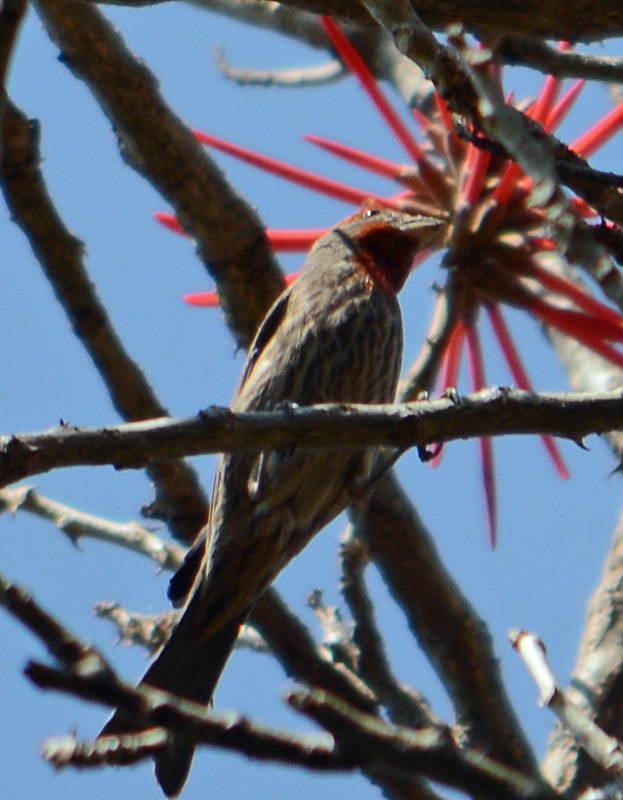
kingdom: Animalia
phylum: Chordata
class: Aves
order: Passeriformes
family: Fringillidae
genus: Haemorhous
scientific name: Haemorhous mexicanus
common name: House finch
